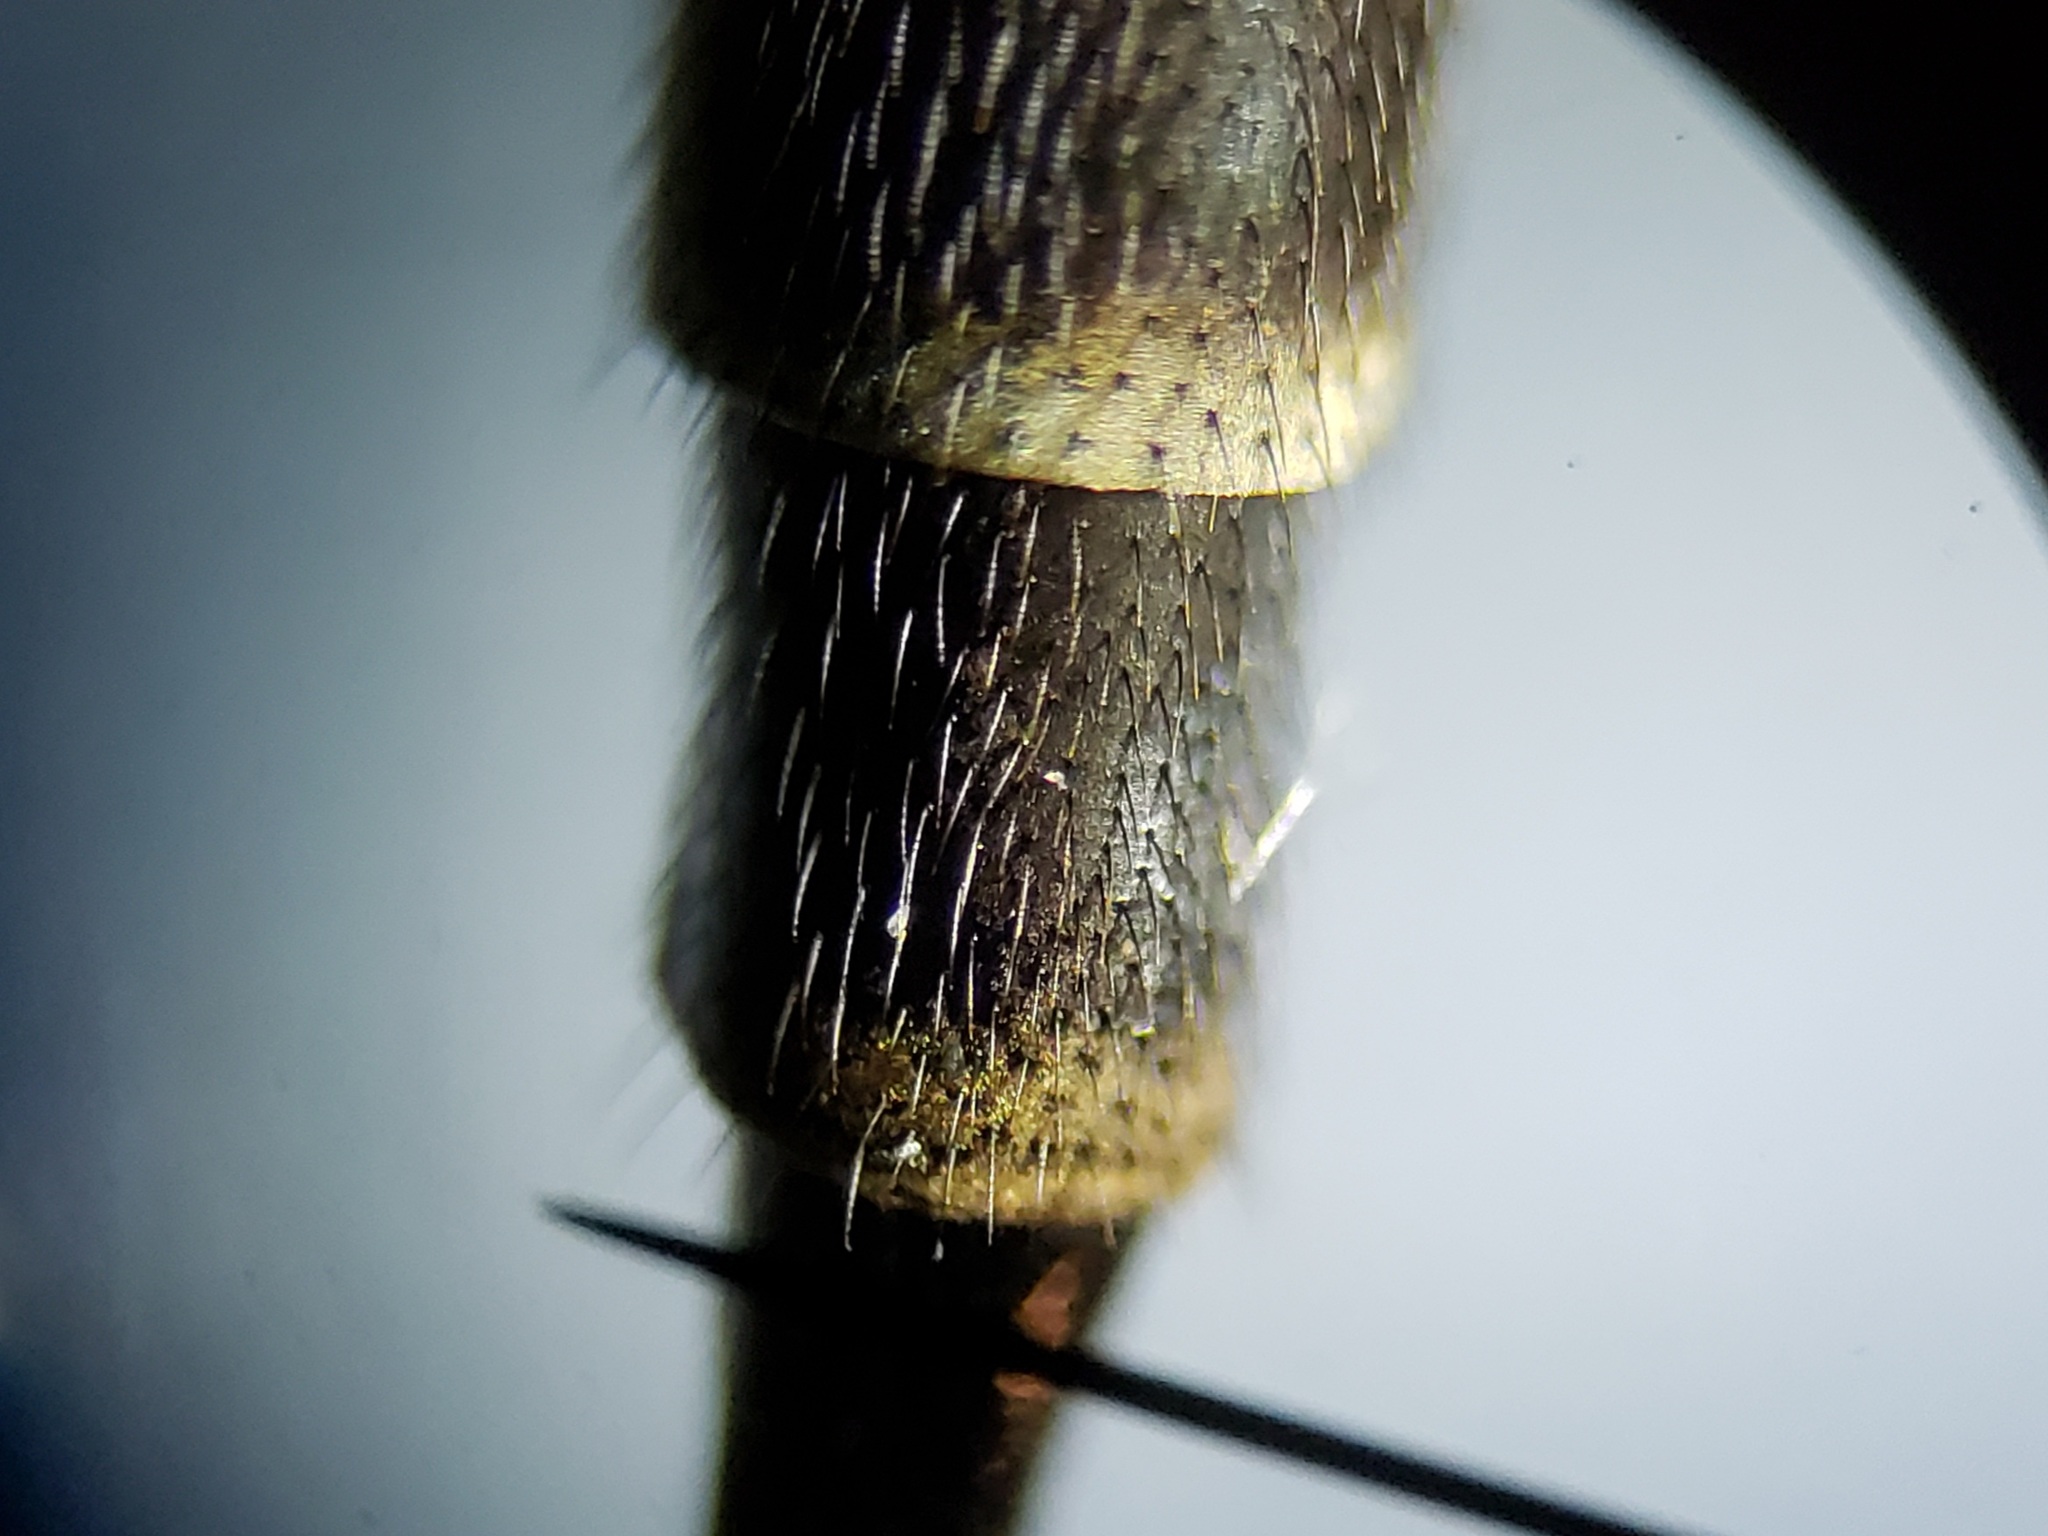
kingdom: Animalia
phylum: Arthropoda
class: Insecta
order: Diptera
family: Asilidae
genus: Efferia
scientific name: Efferia tabescens
